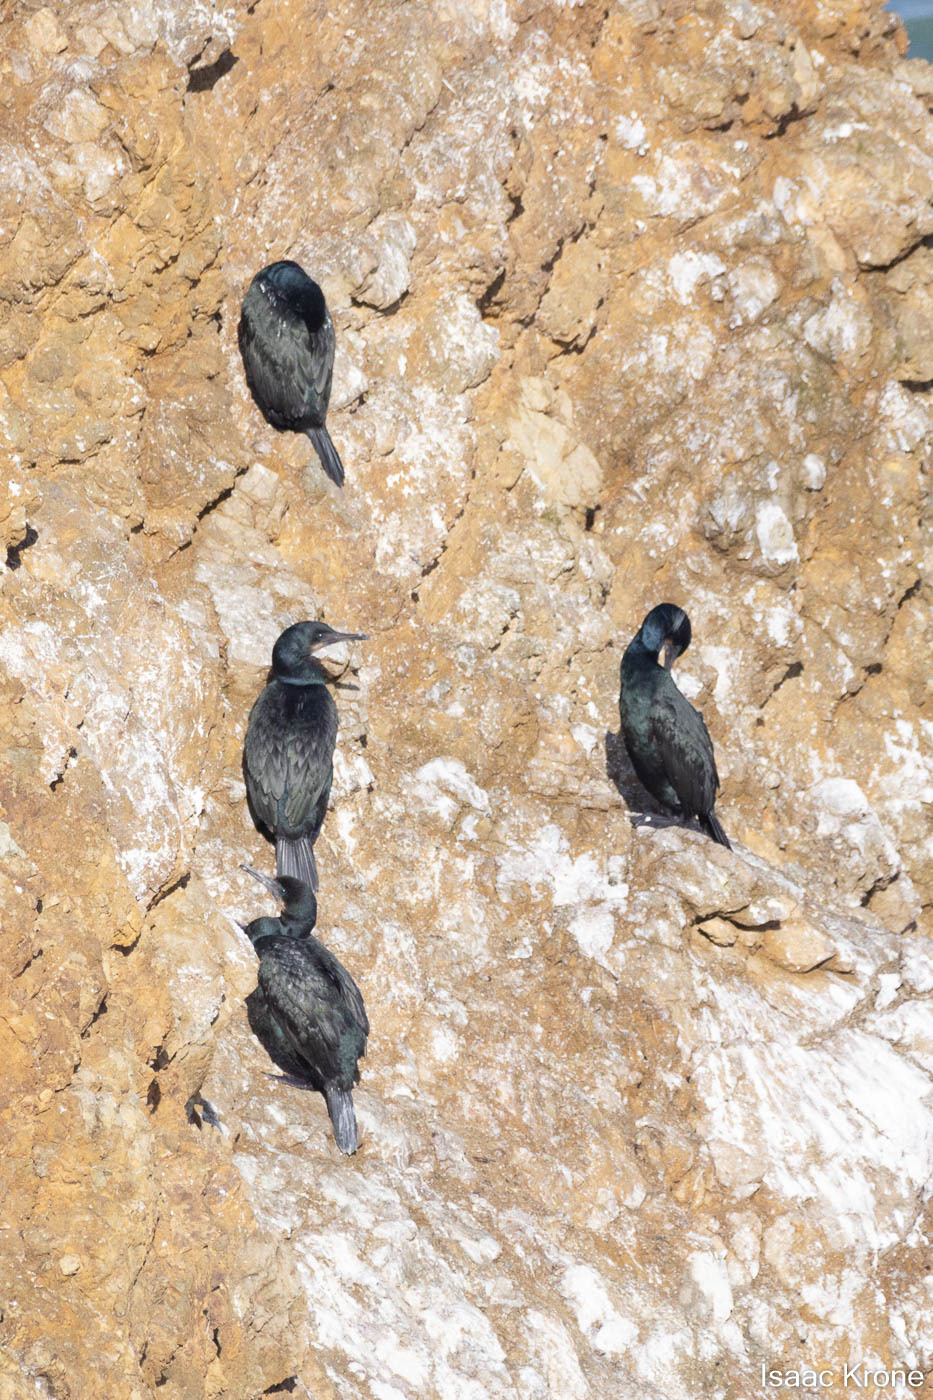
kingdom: Animalia
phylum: Chordata
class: Aves
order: Suliformes
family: Phalacrocoracidae
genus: Urile
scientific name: Urile penicillatus
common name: Brandt's cormorant
